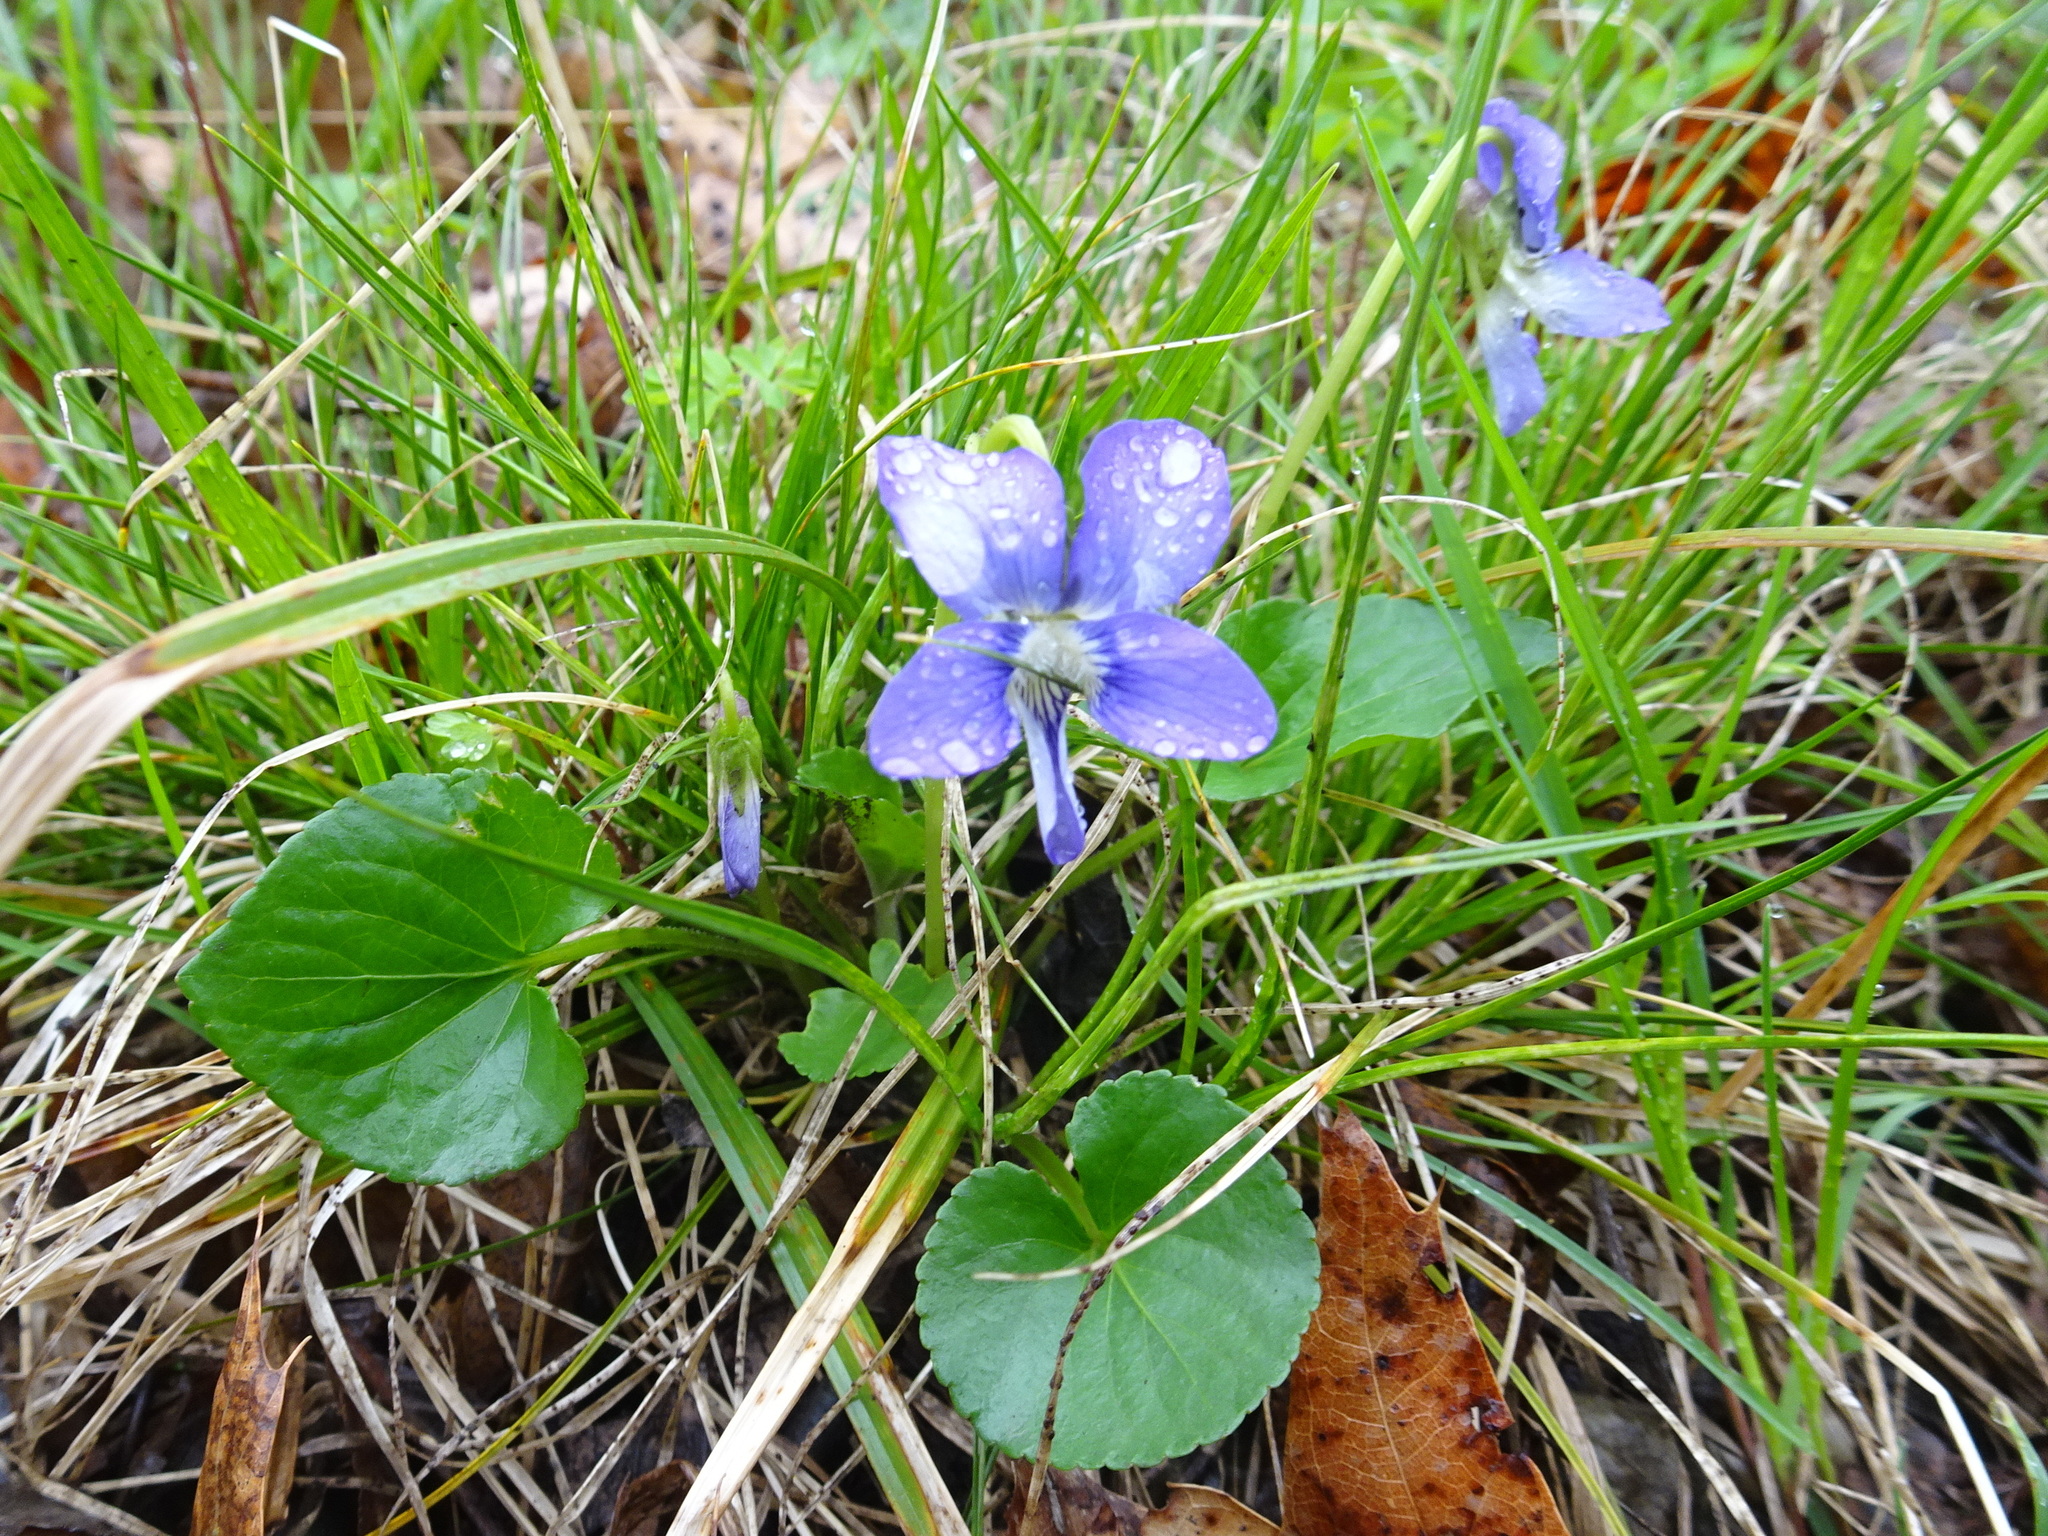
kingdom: Plantae
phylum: Tracheophyta
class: Magnoliopsida
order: Malpighiales
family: Violaceae
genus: Viola
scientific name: Viola sororia
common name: Dooryard violet
